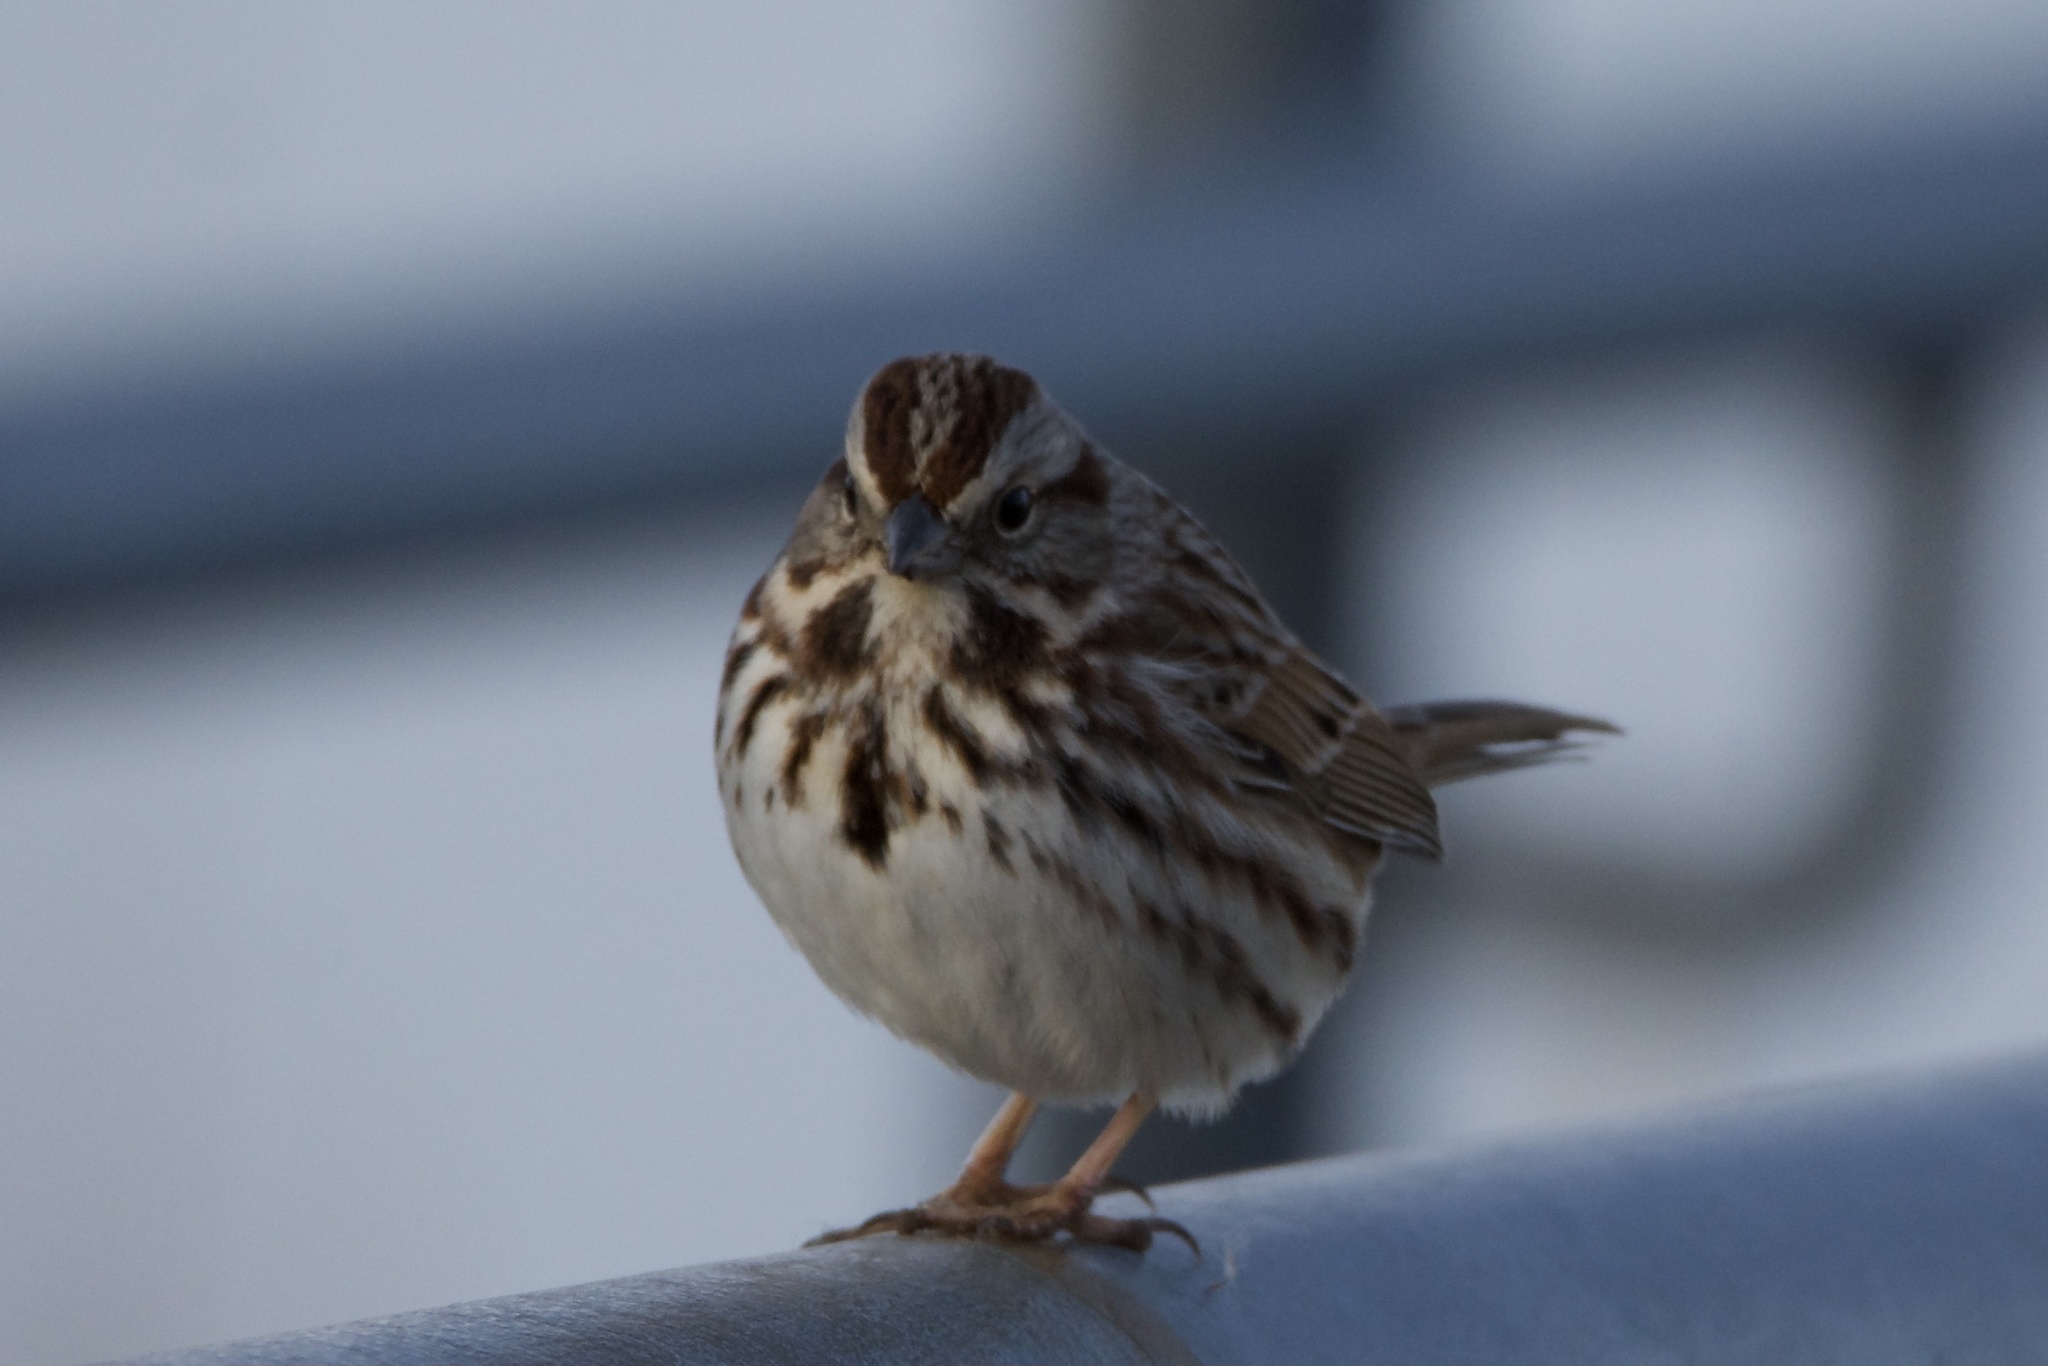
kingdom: Animalia
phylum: Chordata
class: Aves
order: Passeriformes
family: Passerellidae
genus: Melospiza
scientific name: Melospiza melodia
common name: Song sparrow
